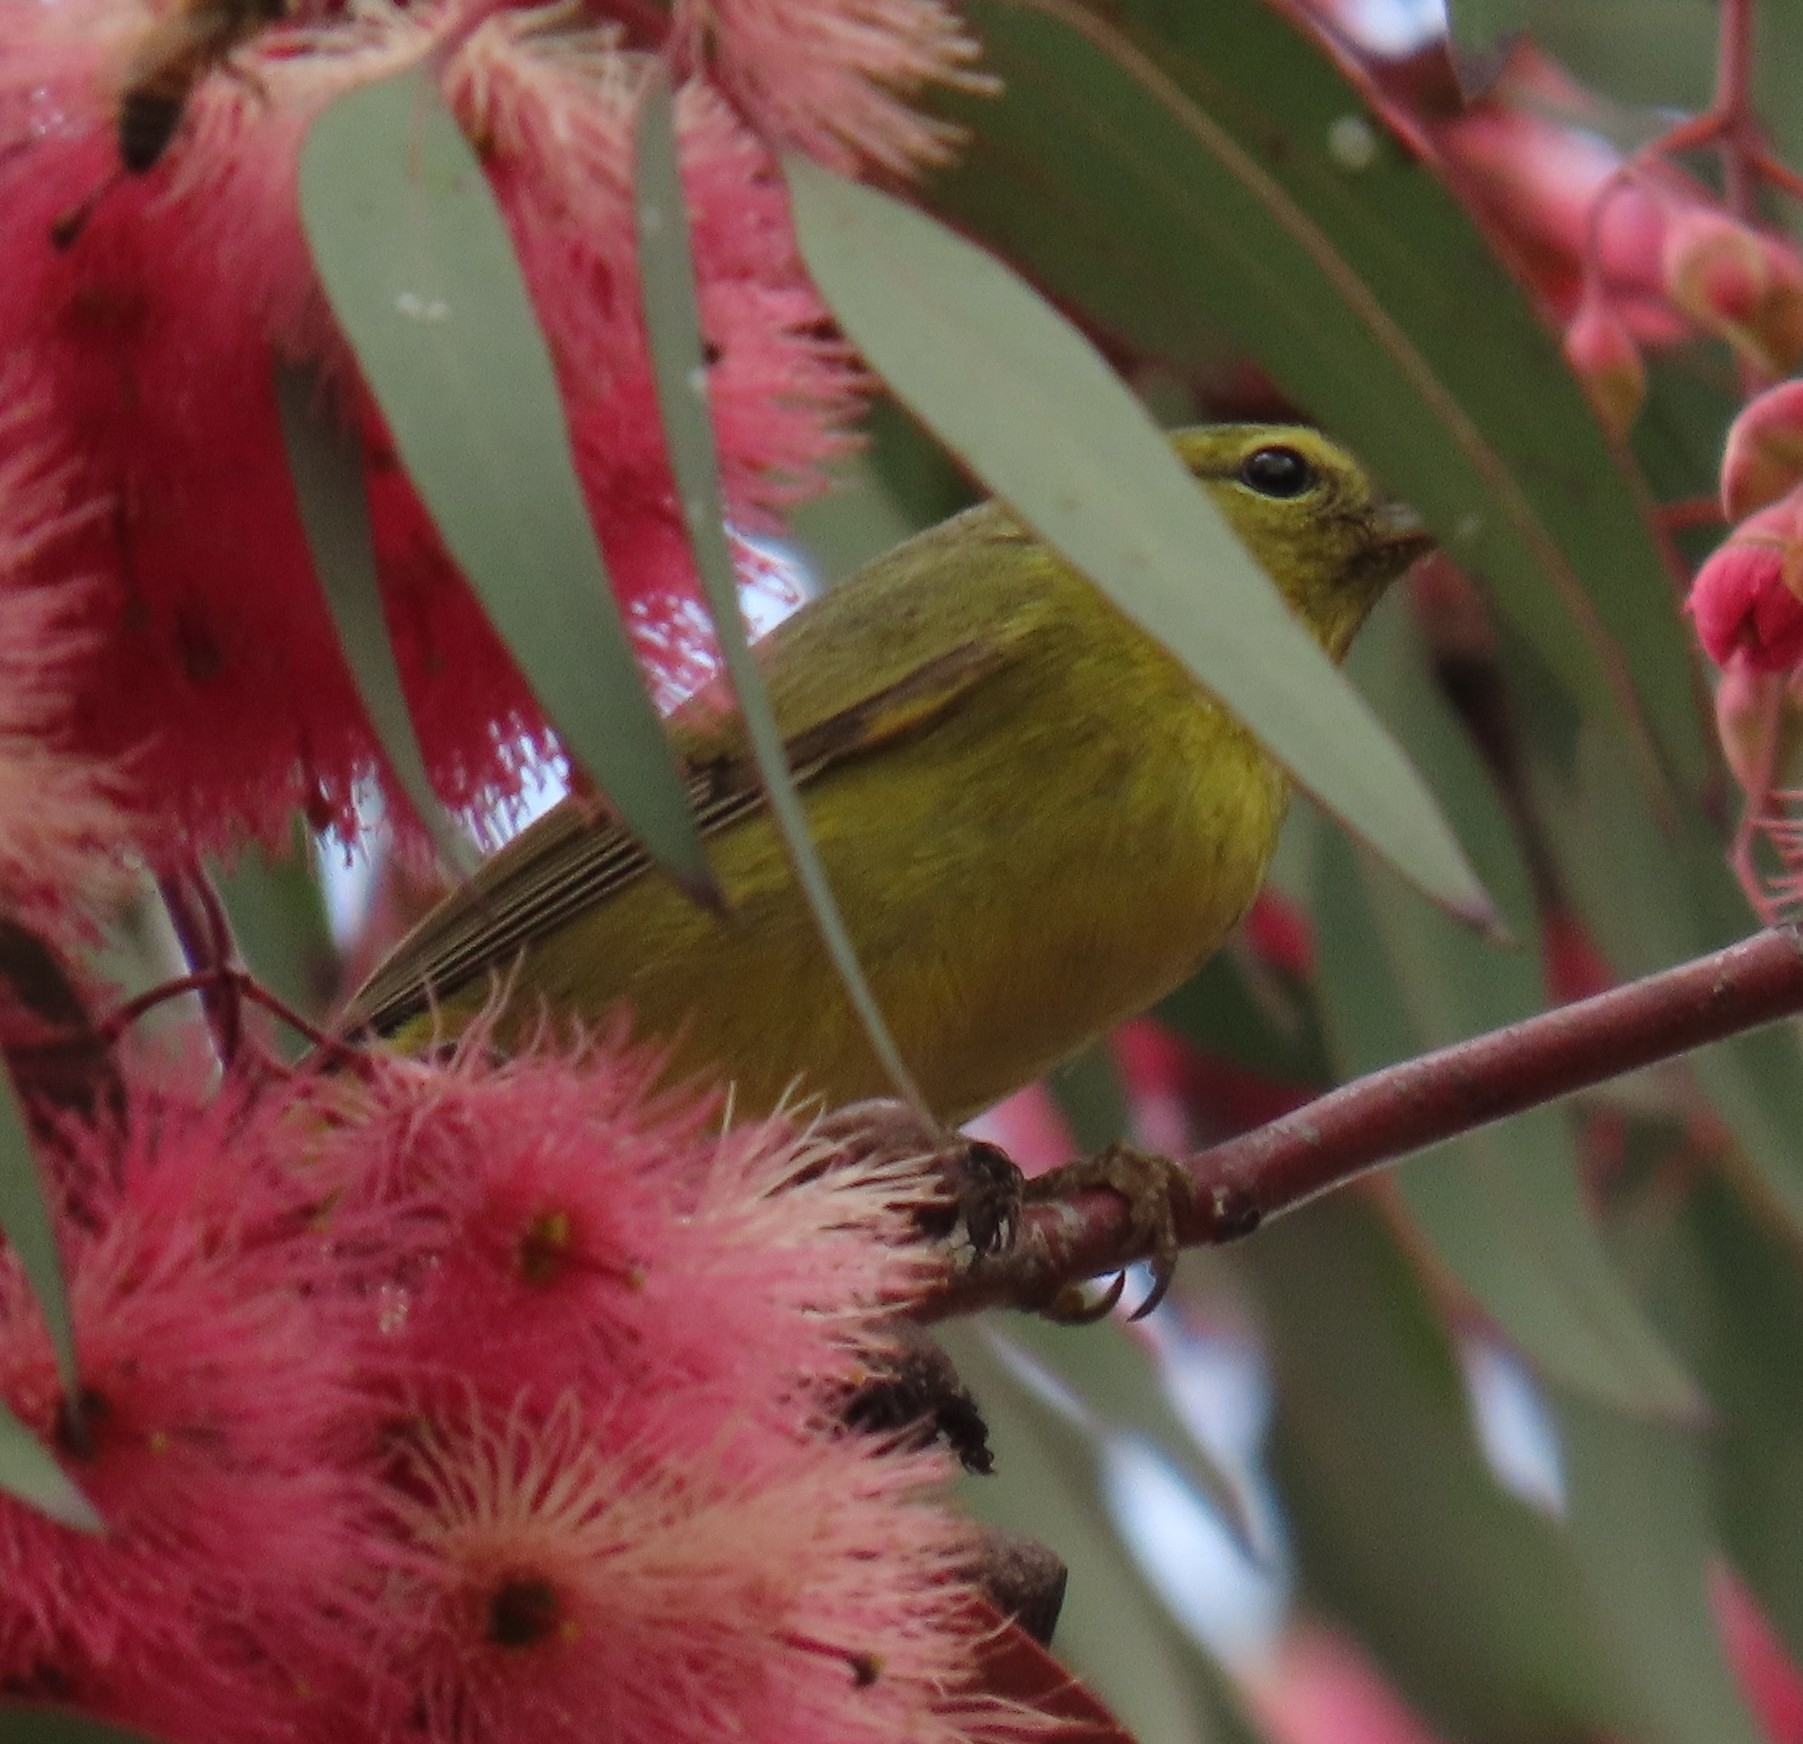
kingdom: Animalia
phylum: Chordata
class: Aves
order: Passeriformes
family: Parulidae
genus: Leiothlypis
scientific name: Leiothlypis celata
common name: Orange-crowned warbler
